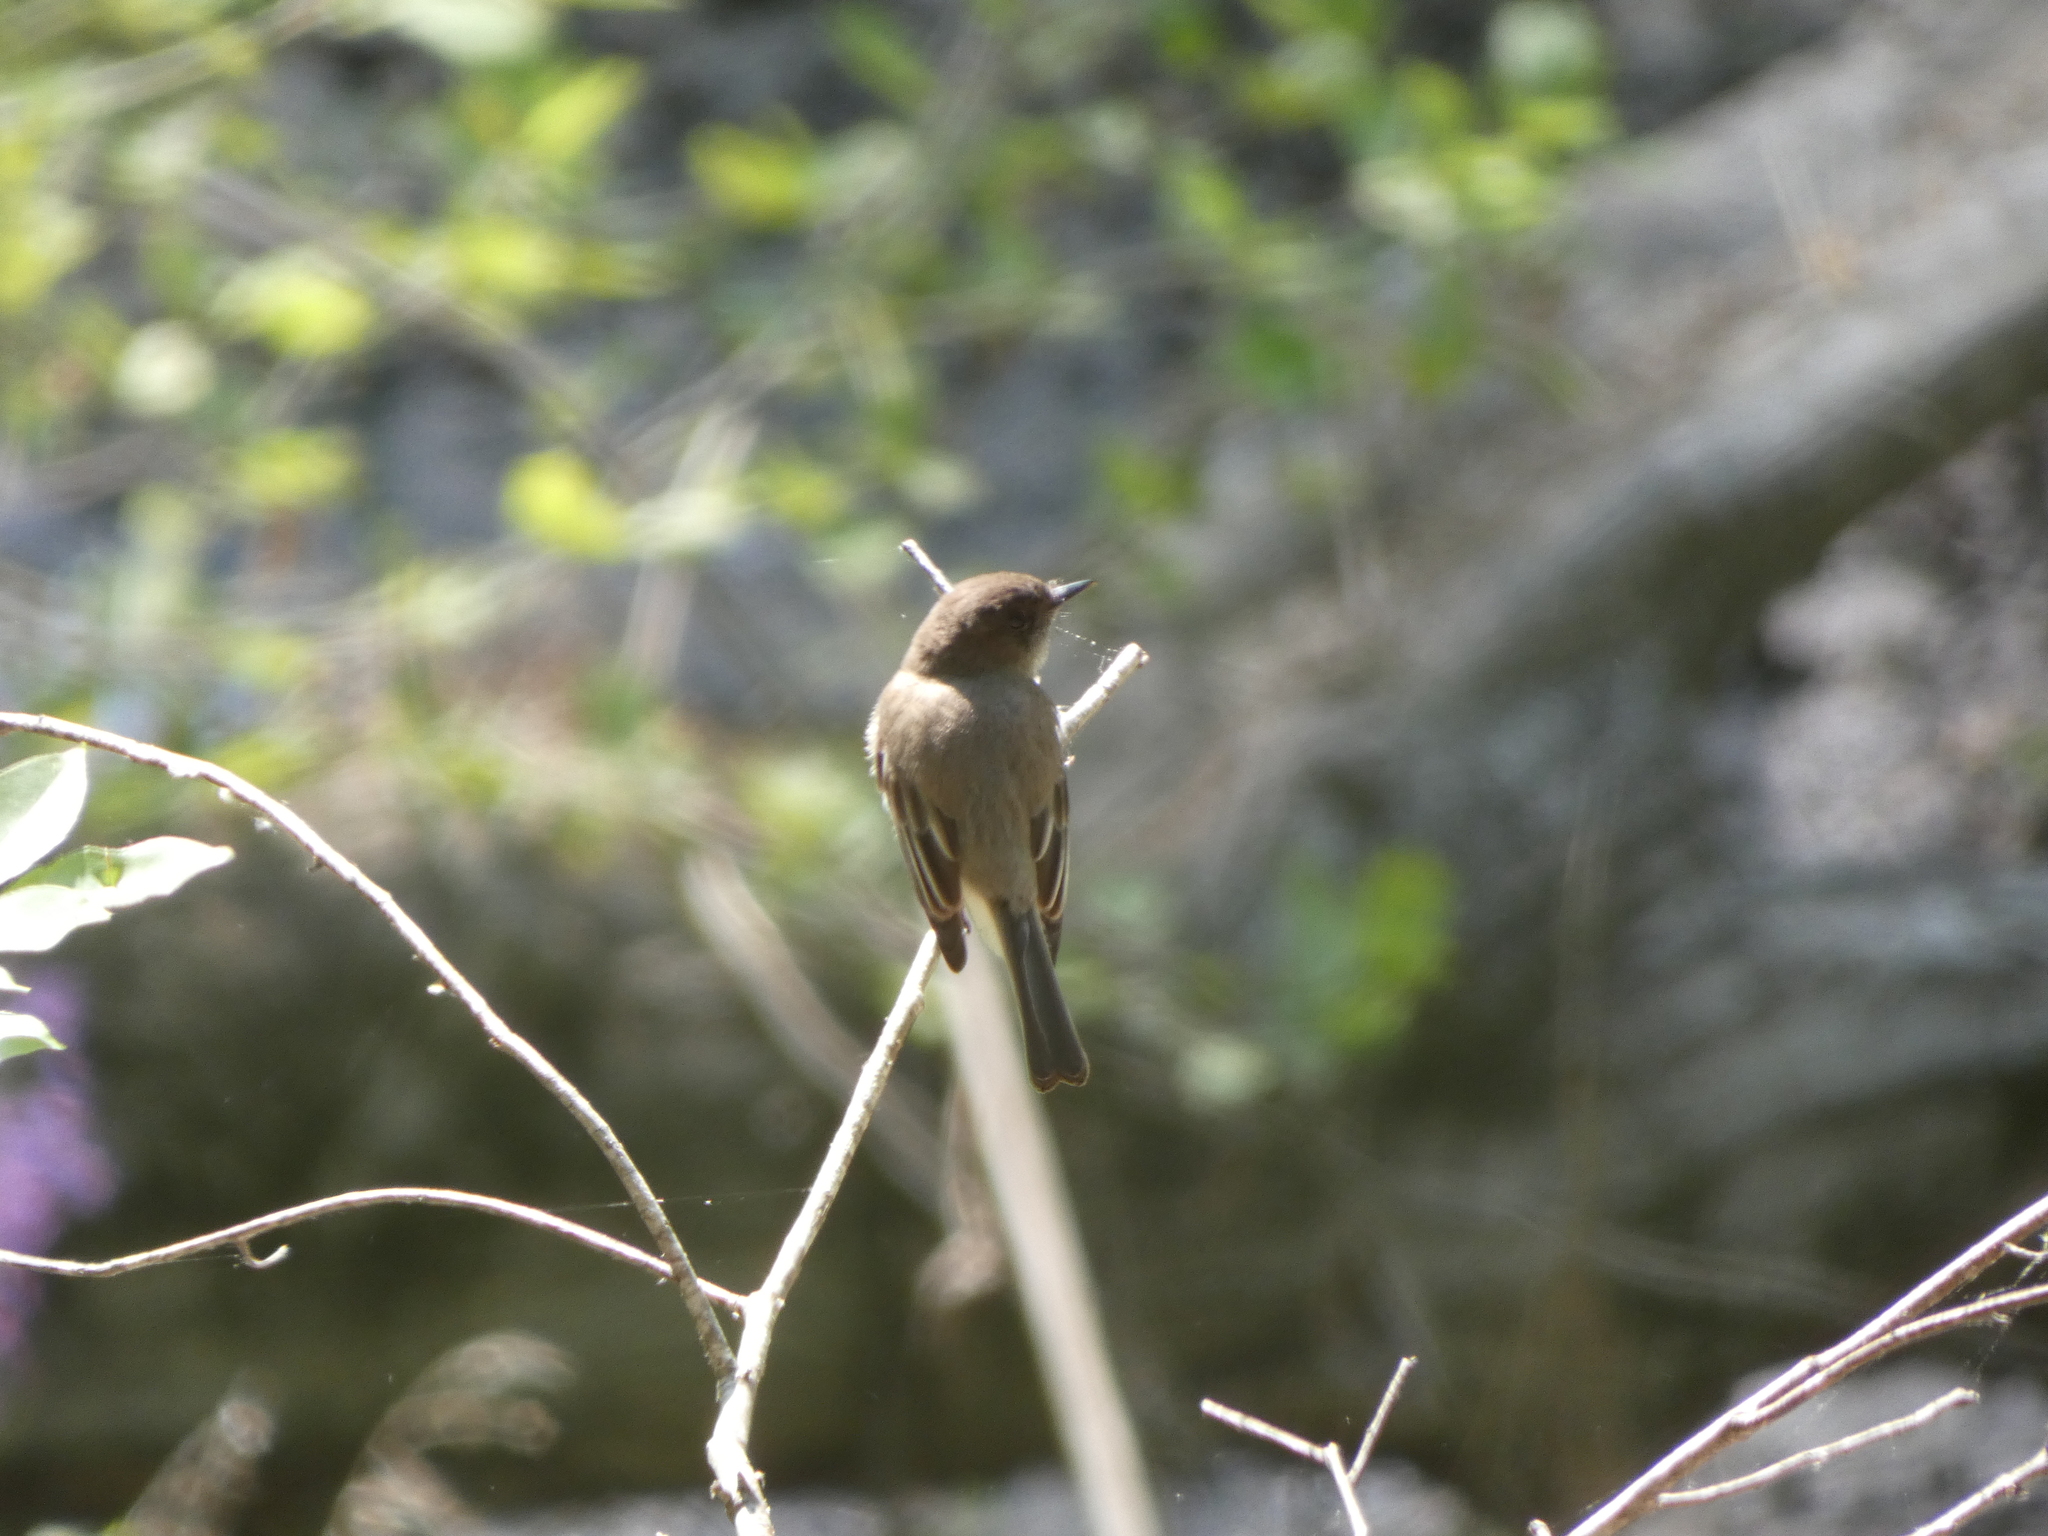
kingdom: Animalia
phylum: Chordata
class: Aves
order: Passeriformes
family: Tyrannidae
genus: Sayornis
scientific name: Sayornis phoebe
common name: Eastern phoebe
